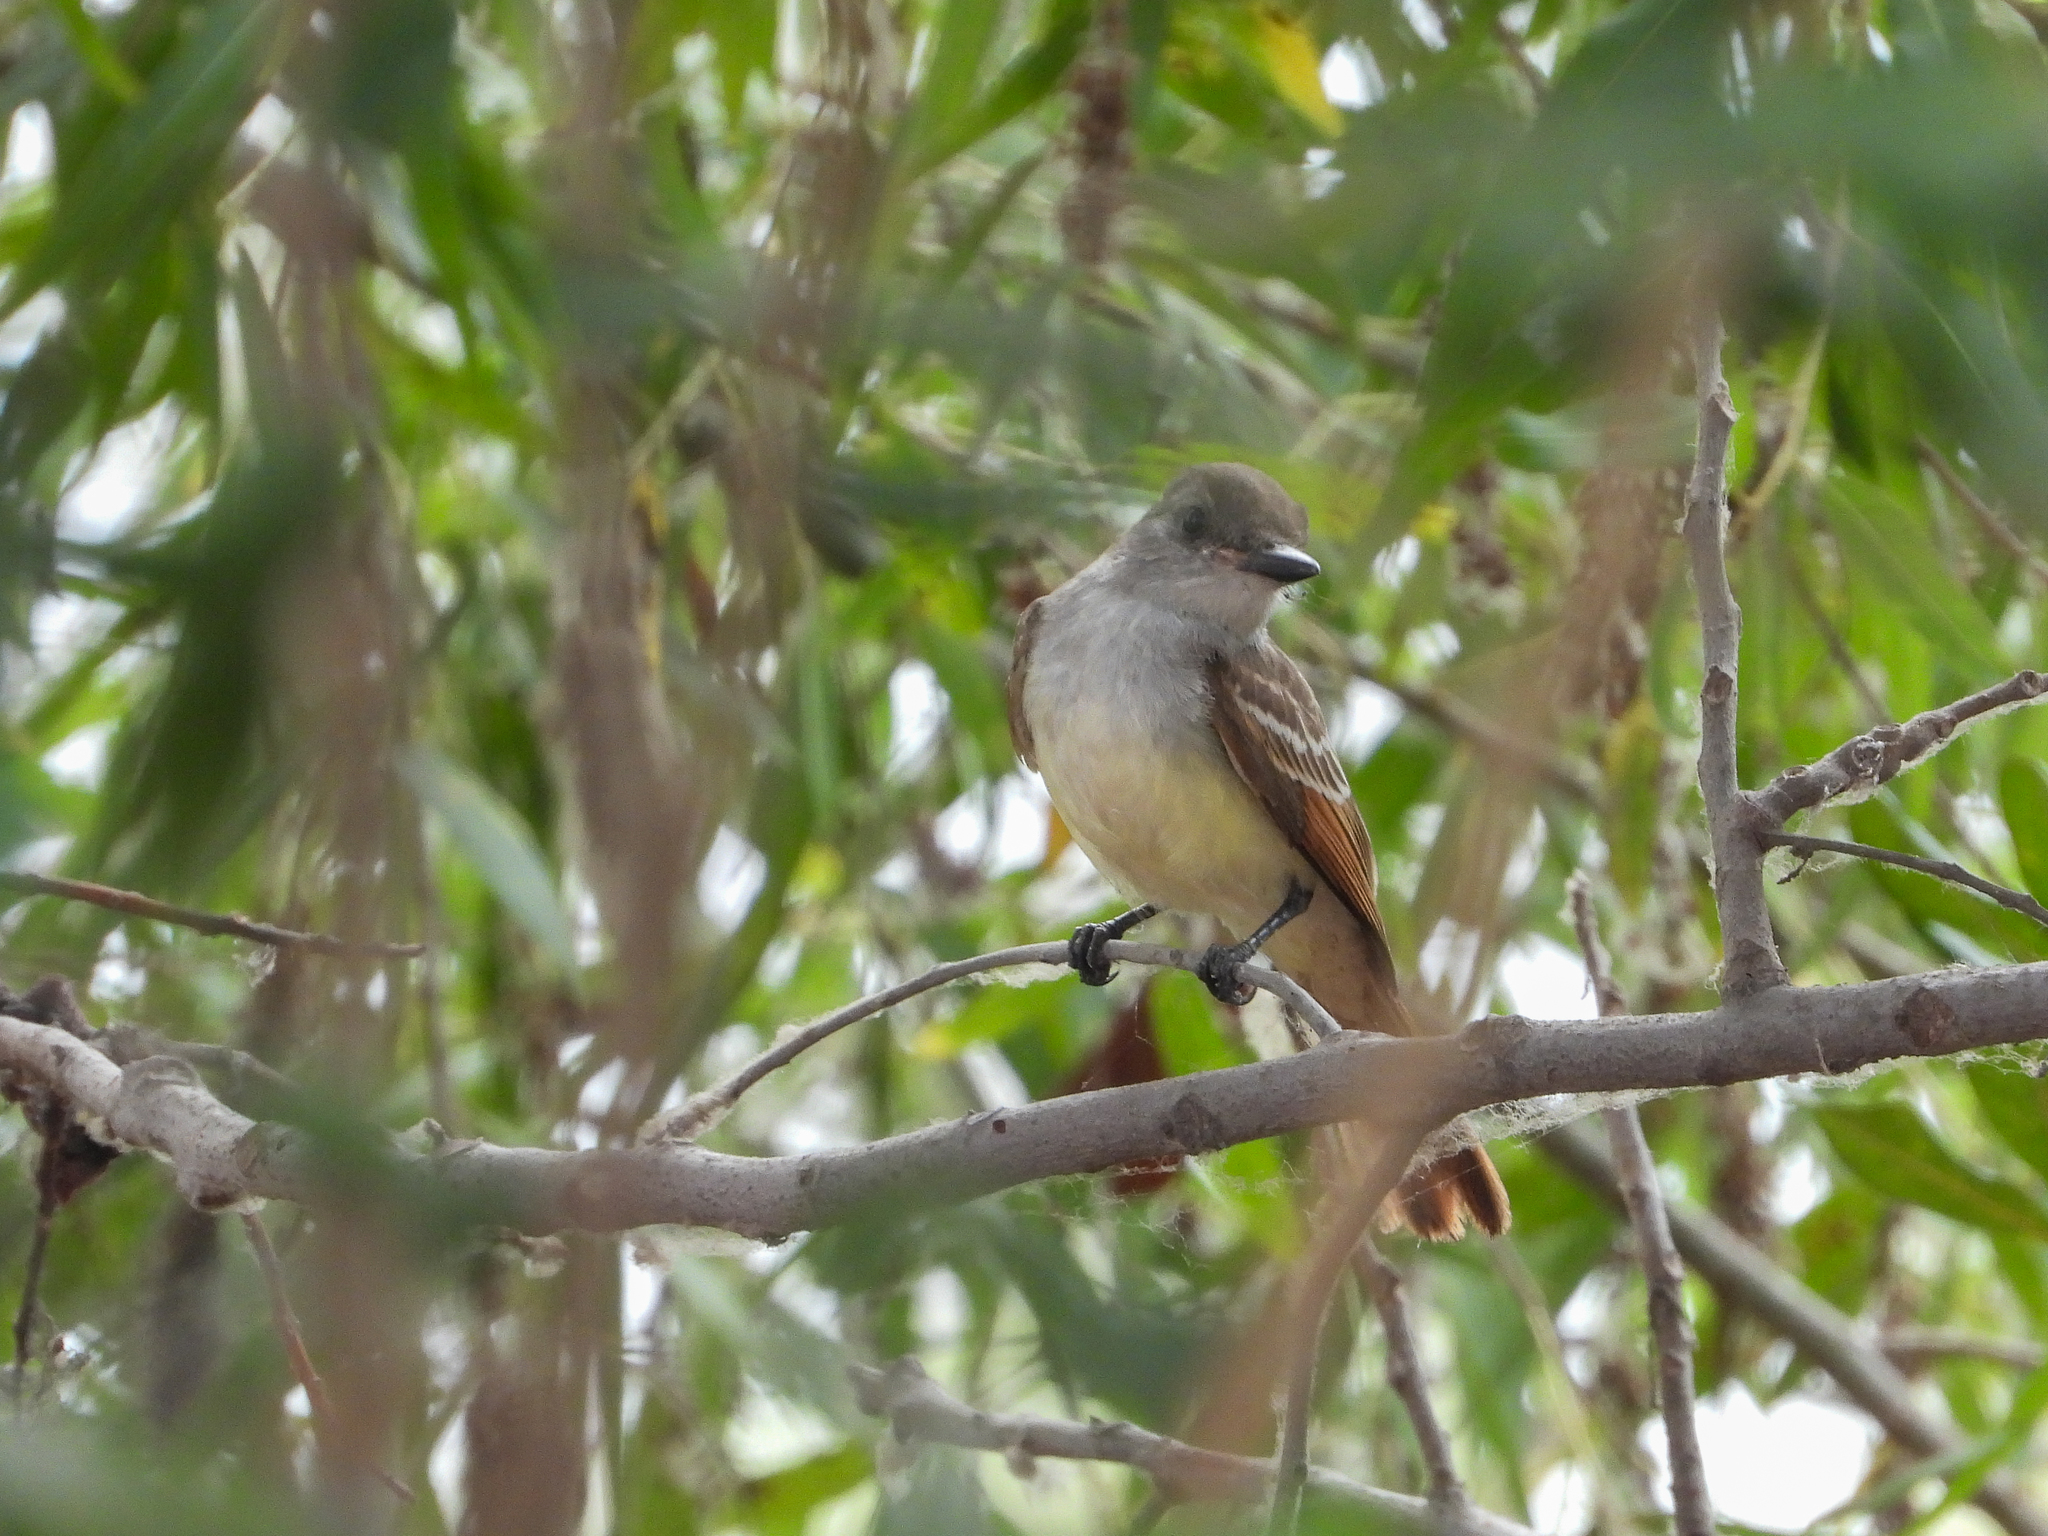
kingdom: Animalia
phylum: Chordata
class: Aves
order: Passeriformes
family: Tyrannidae
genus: Myiarchus
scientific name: Myiarchus cinerascens
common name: Ash-throated flycatcher
